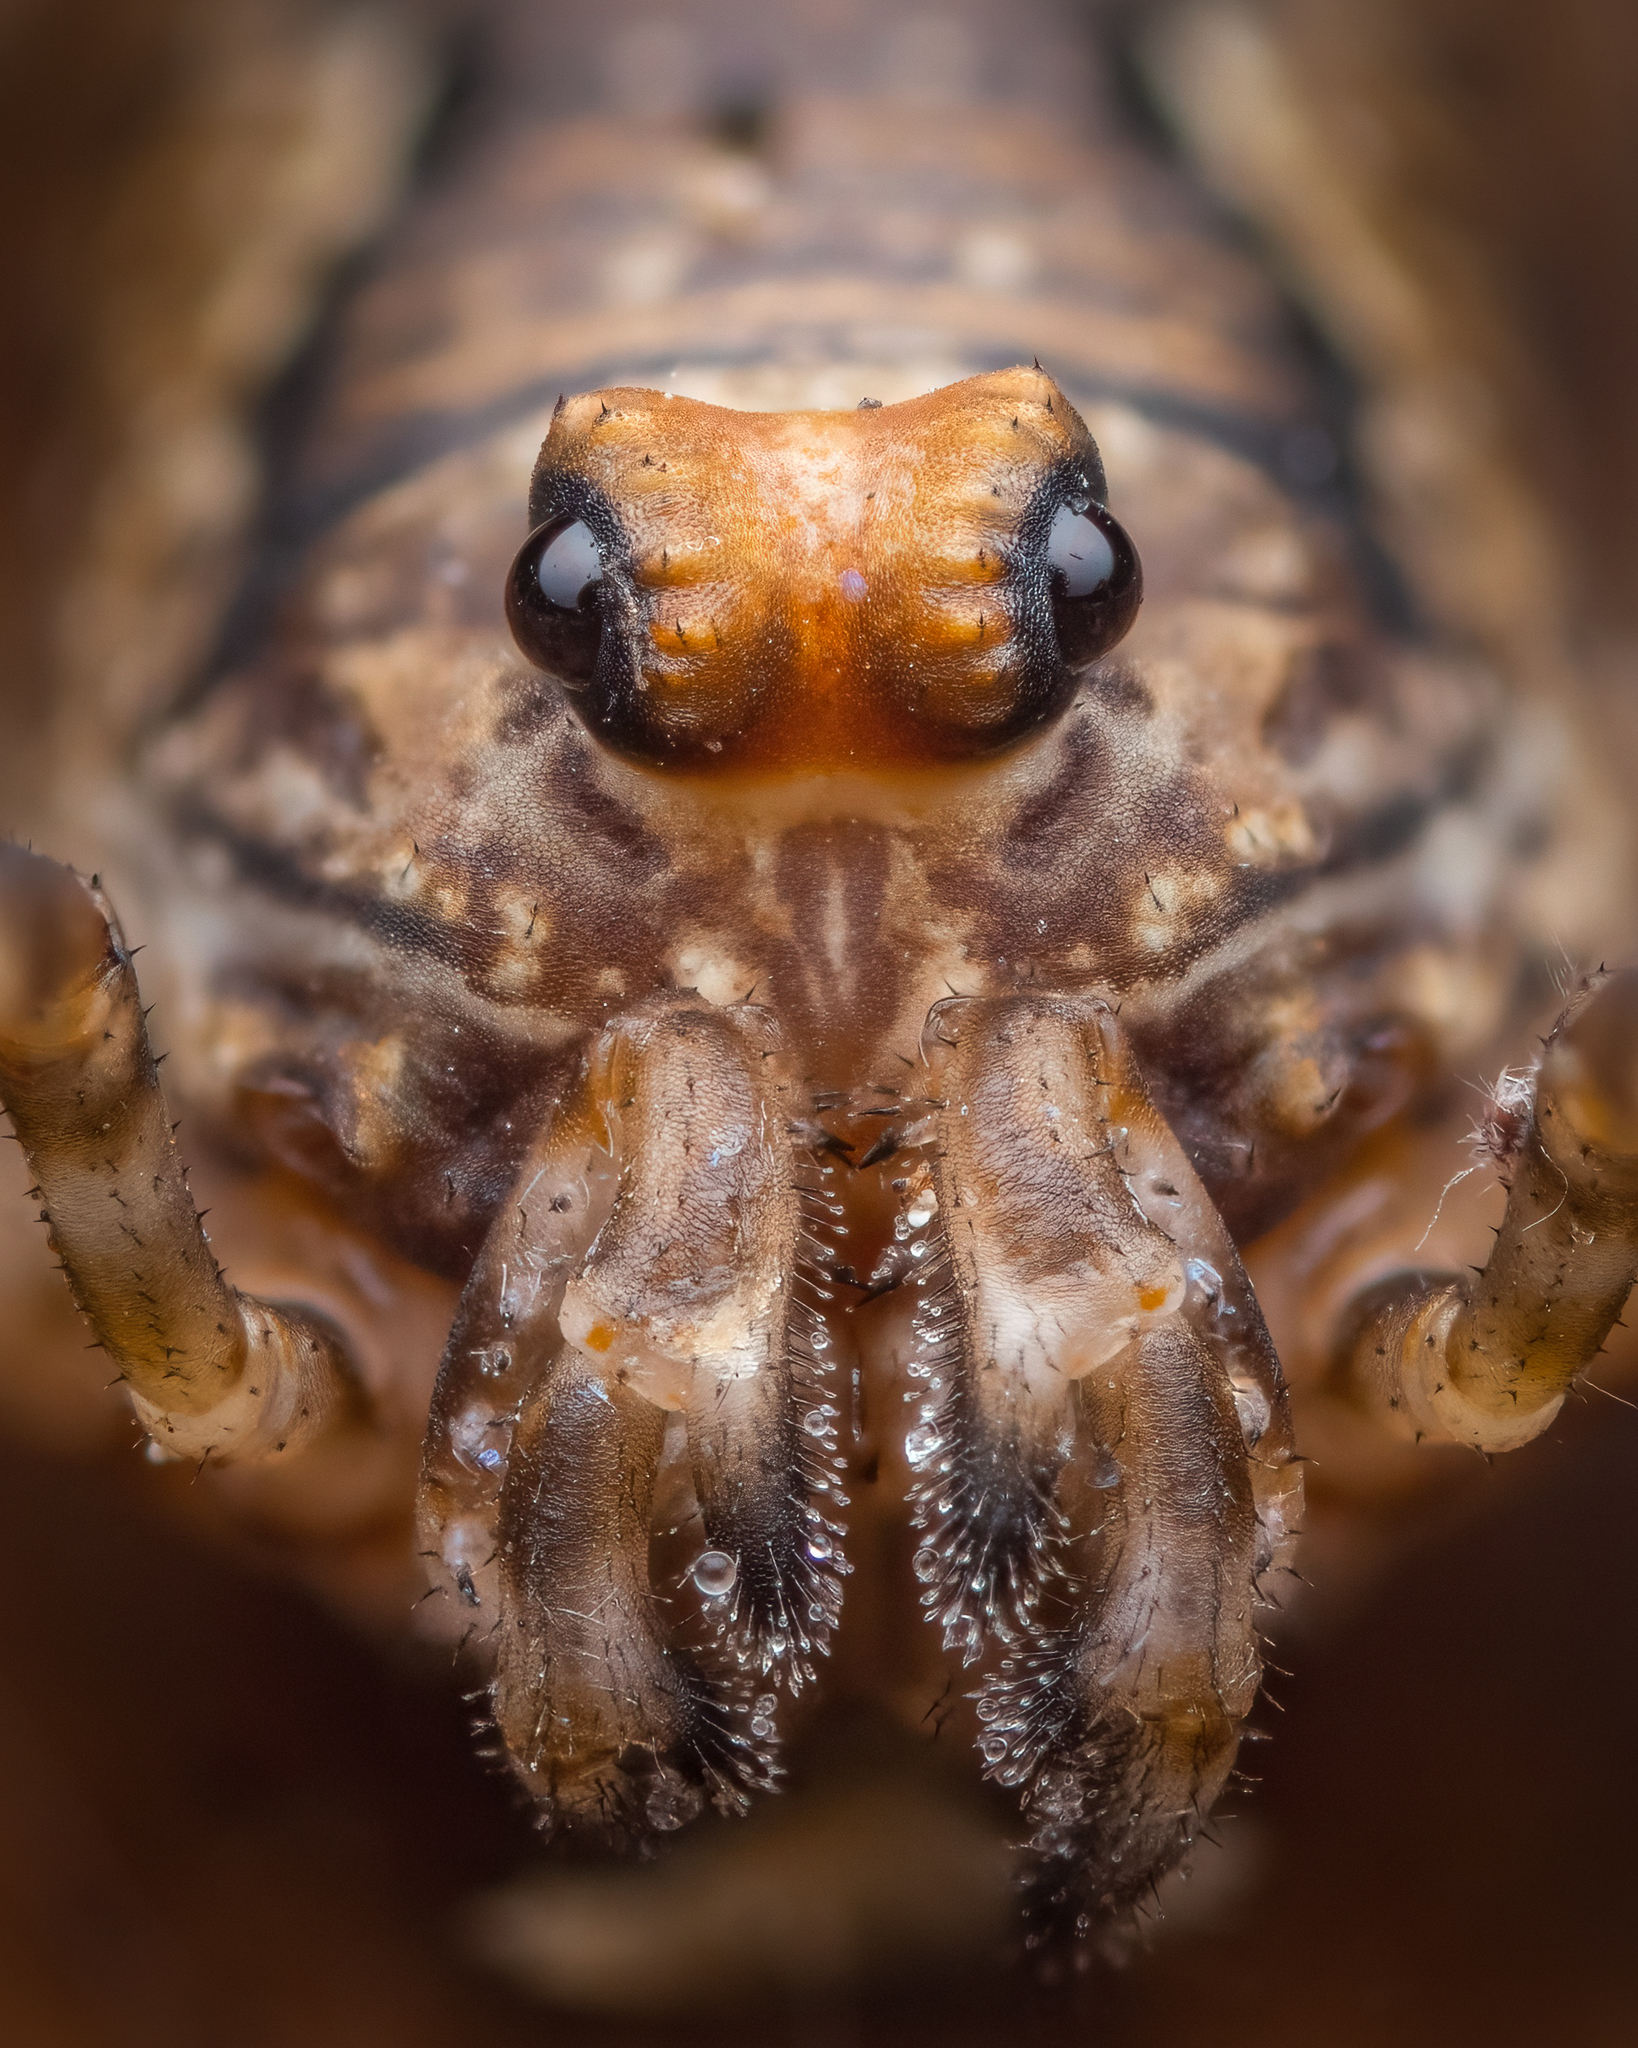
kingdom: Animalia
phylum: Arthropoda
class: Arachnida
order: Opiliones
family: Phalangiidae
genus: Platybunus
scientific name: Platybunus pinetorum
